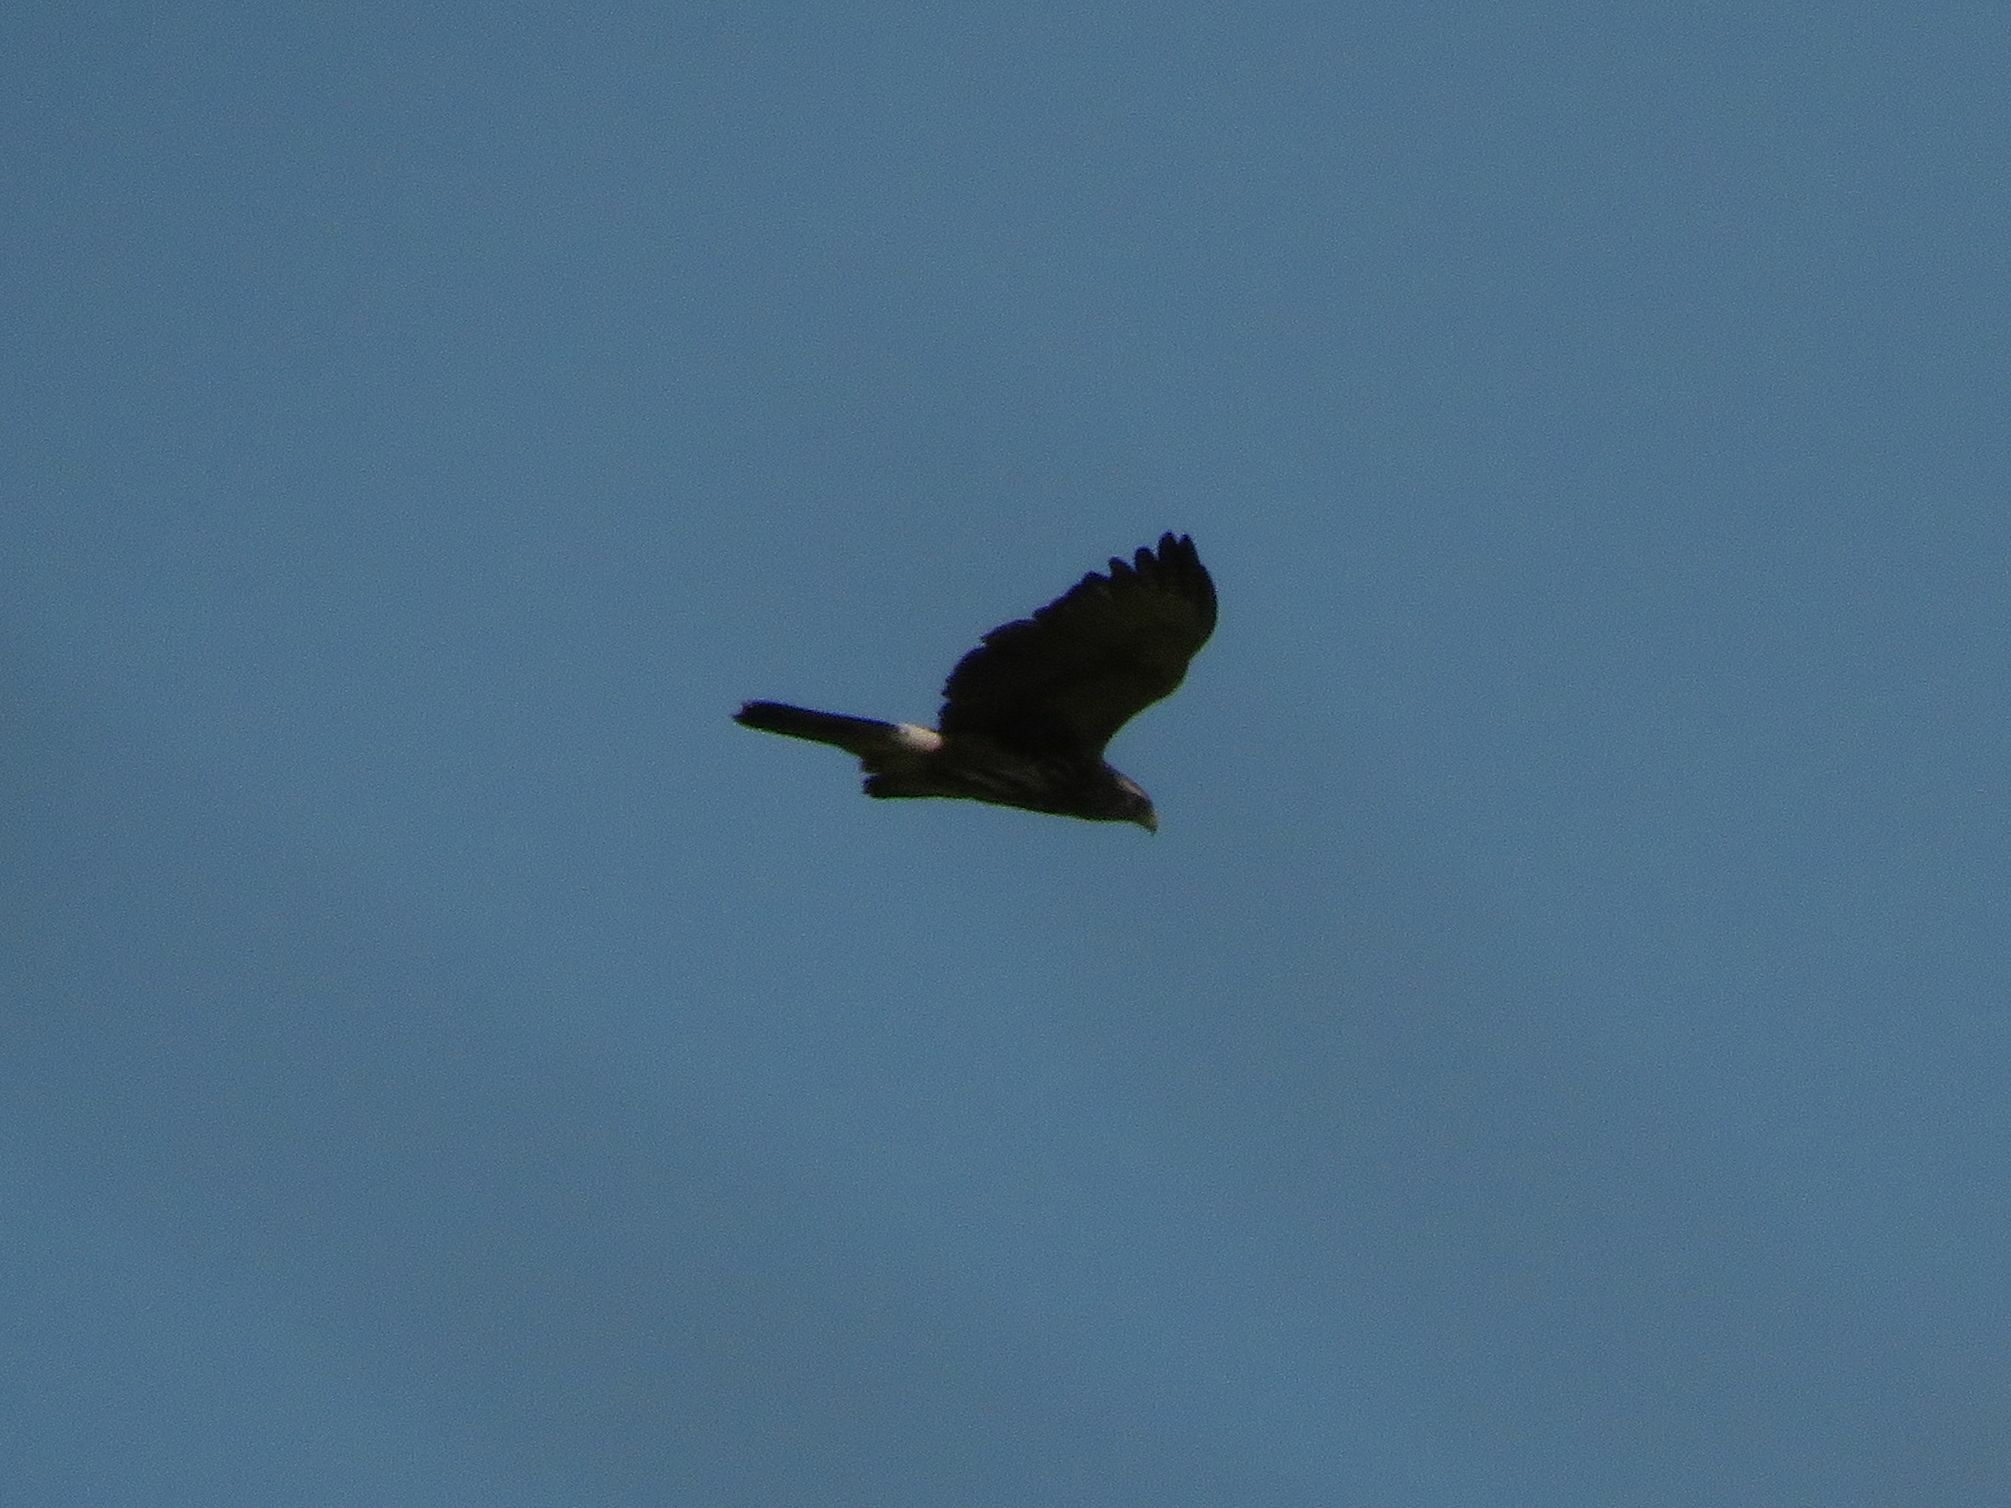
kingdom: Animalia
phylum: Chordata
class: Aves
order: Accipitriformes
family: Accipitridae
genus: Parabuteo
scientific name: Parabuteo unicinctus
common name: Harris's hawk
